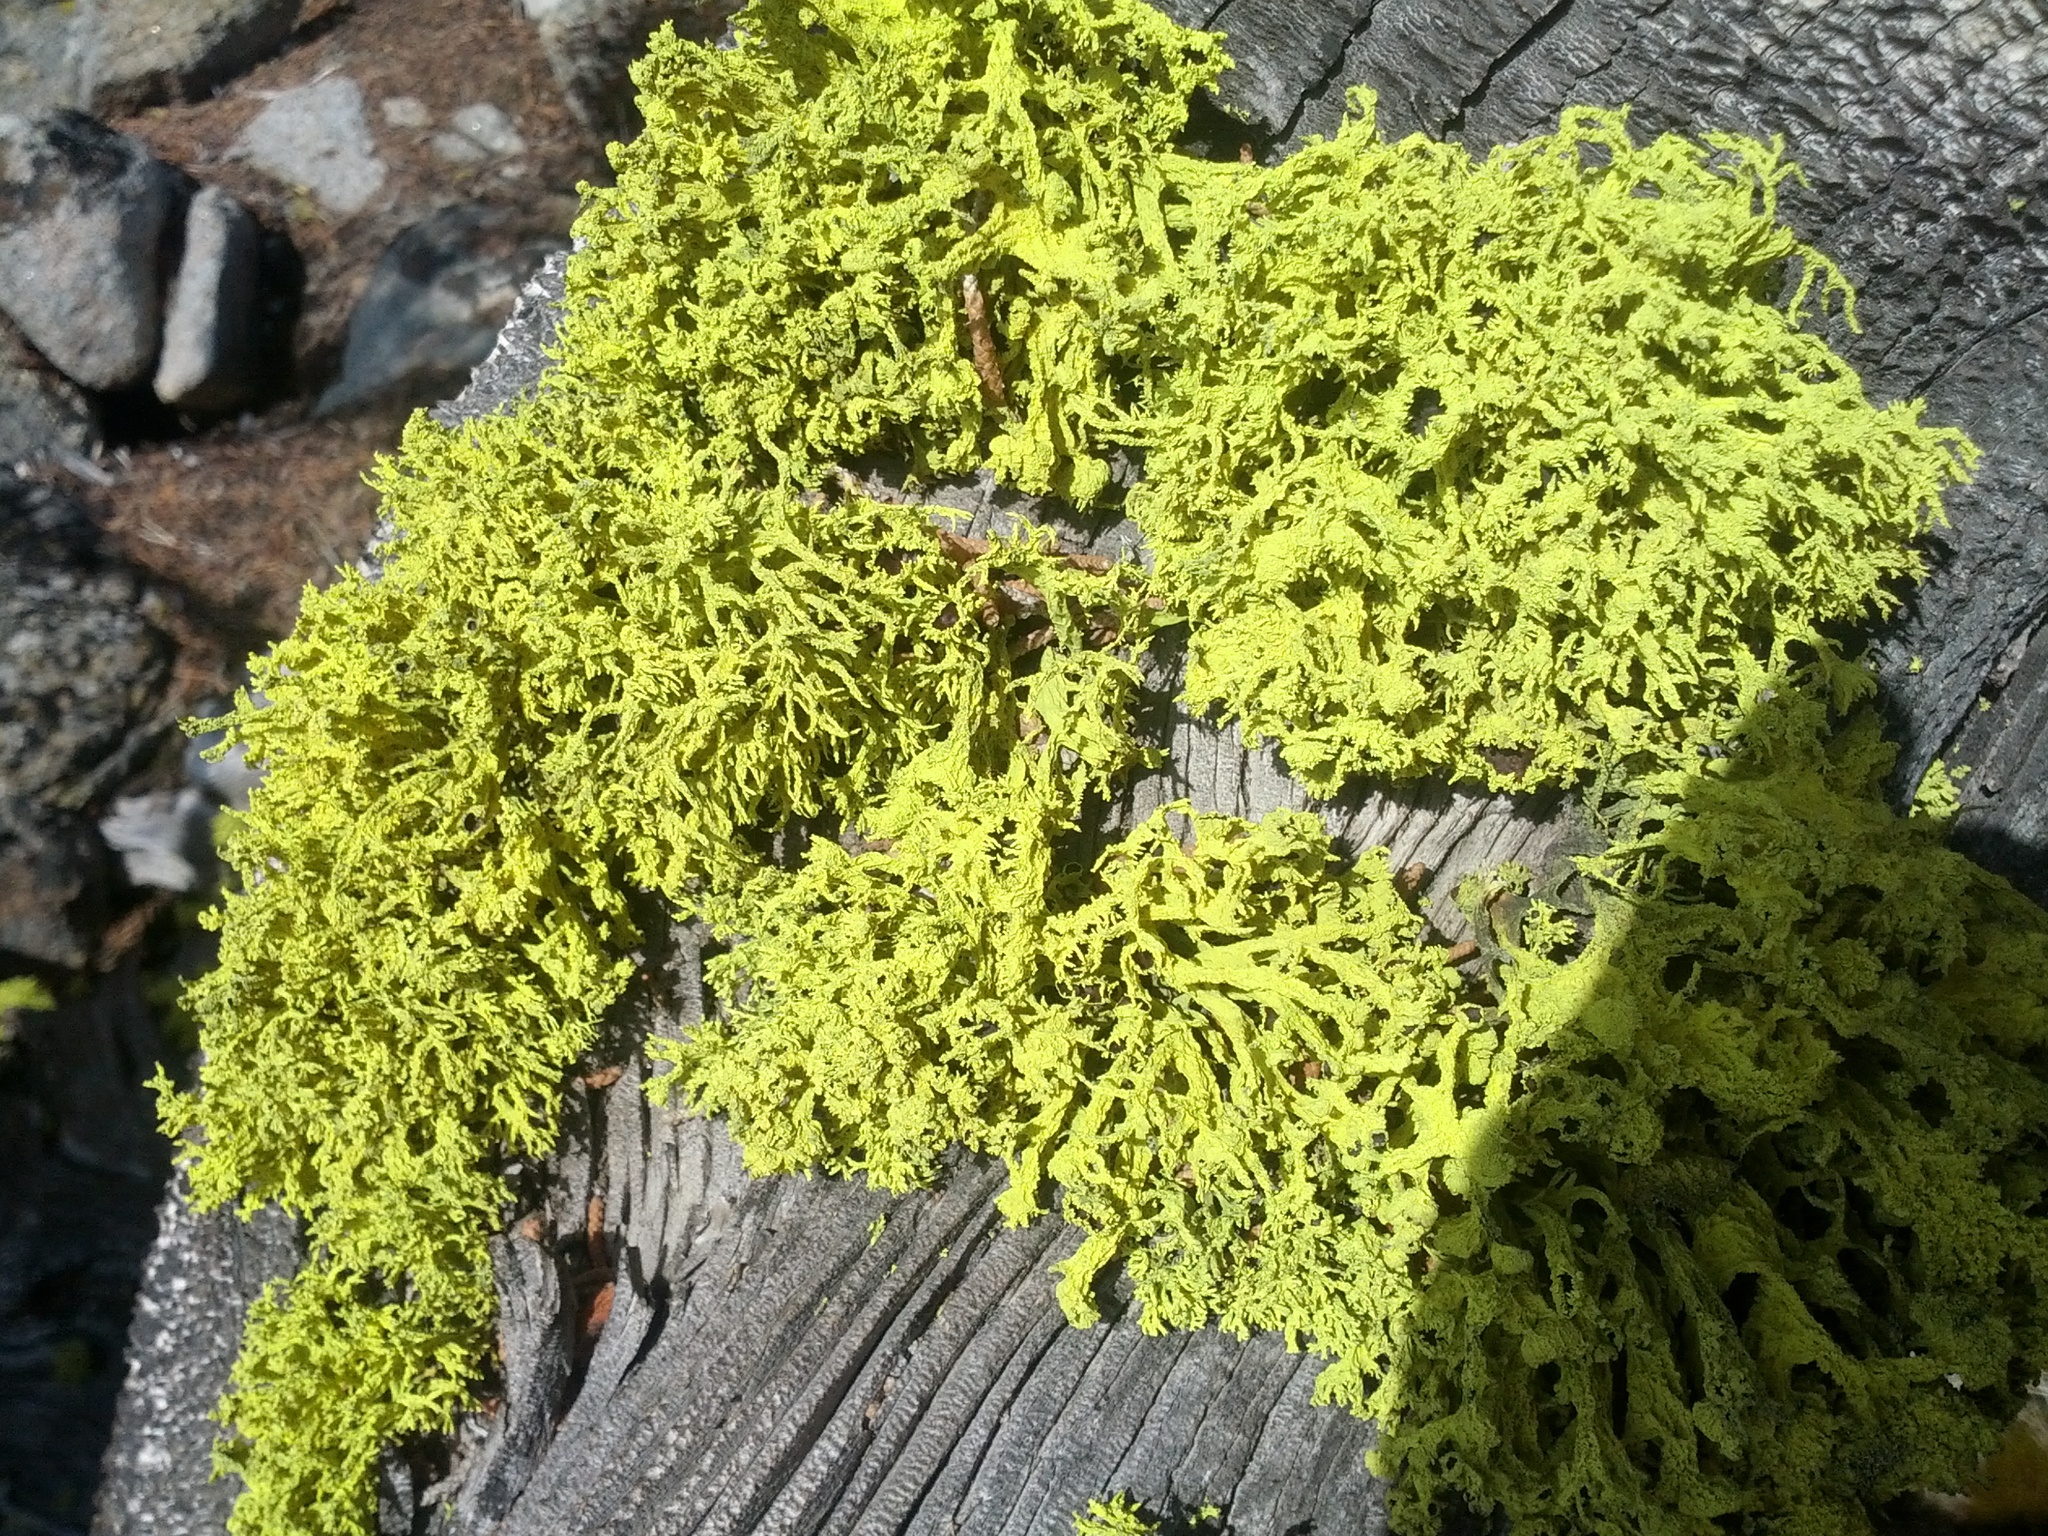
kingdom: Fungi
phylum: Ascomycota
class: Lecanoromycetes
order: Lecanorales
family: Parmeliaceae
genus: Letharia
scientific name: Letharia vulpina
